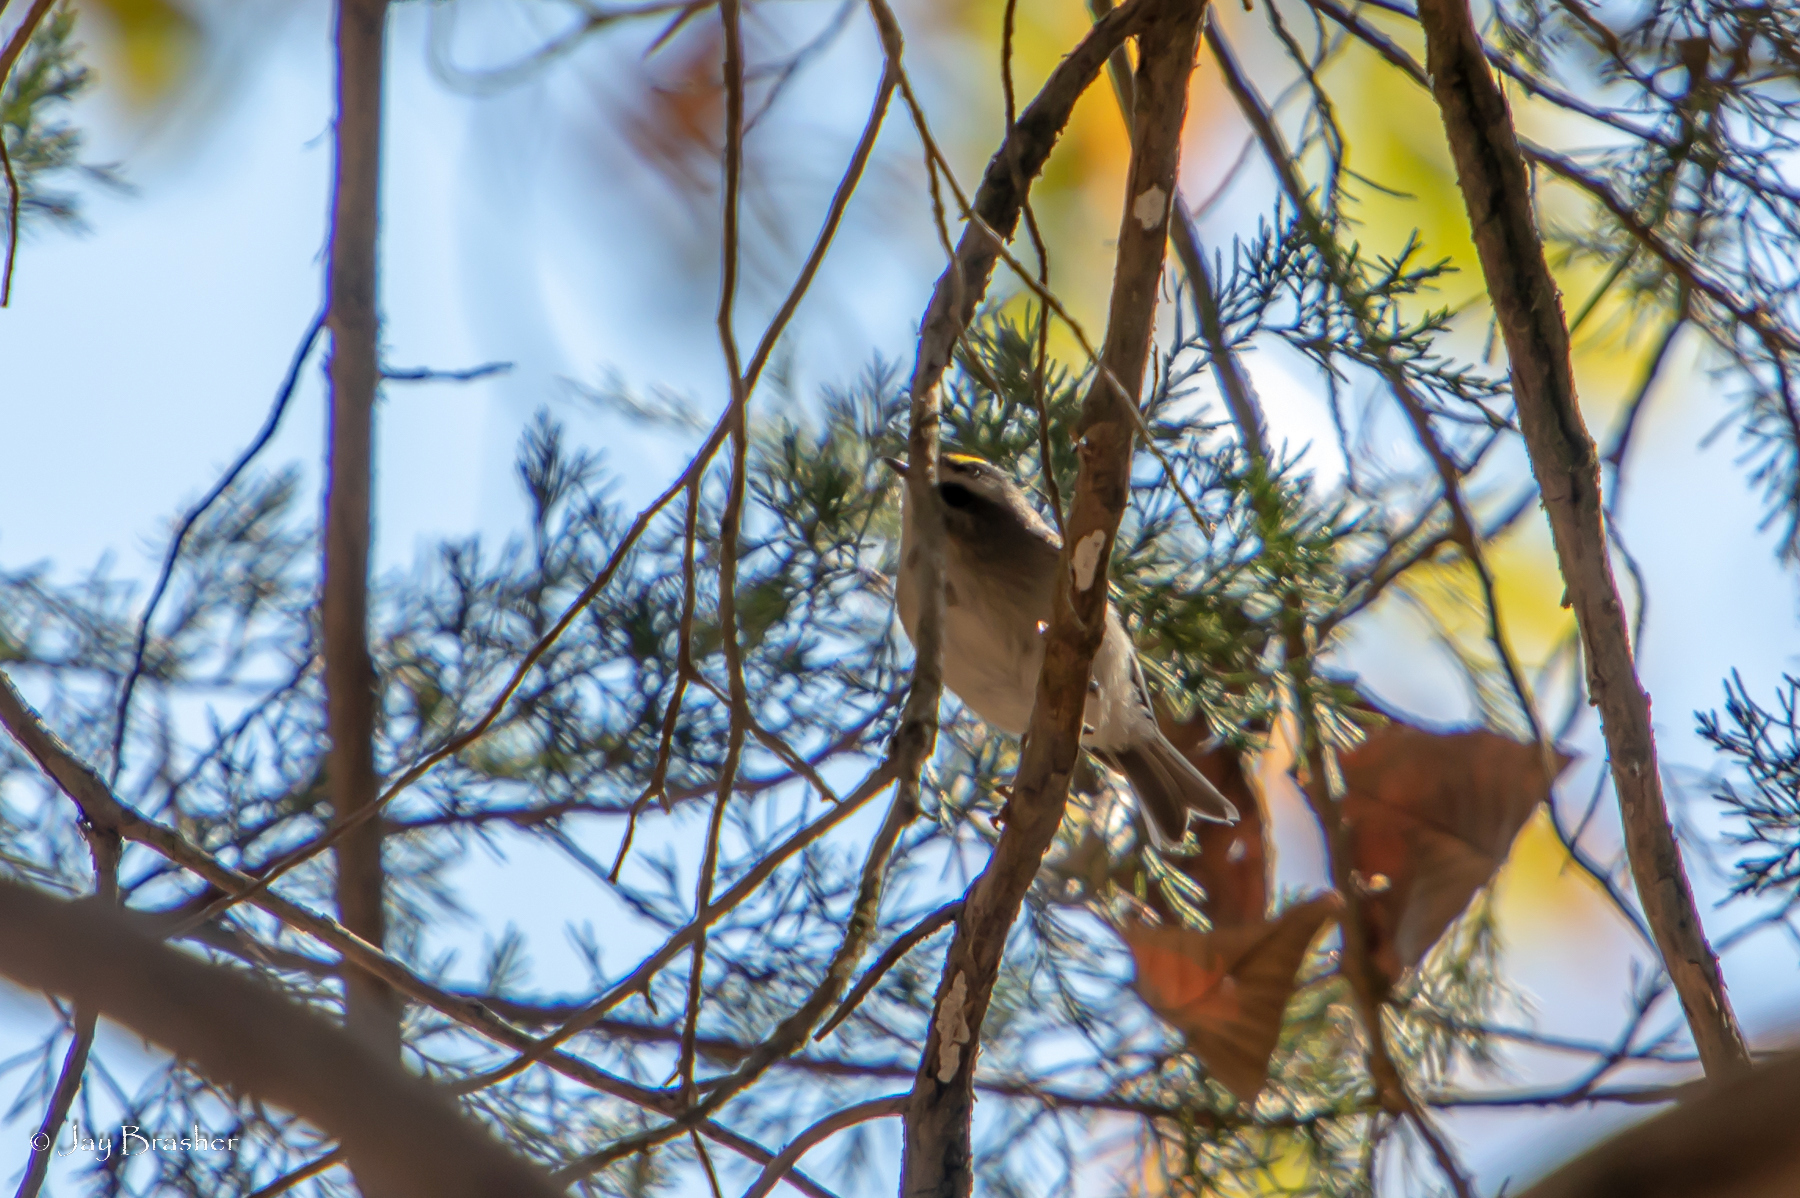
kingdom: Animalia
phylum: Chordata
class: Aves
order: Passeriformes
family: Regulidae
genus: Regulus
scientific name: Regulus satrapa
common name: Golden-crowned kinglet
